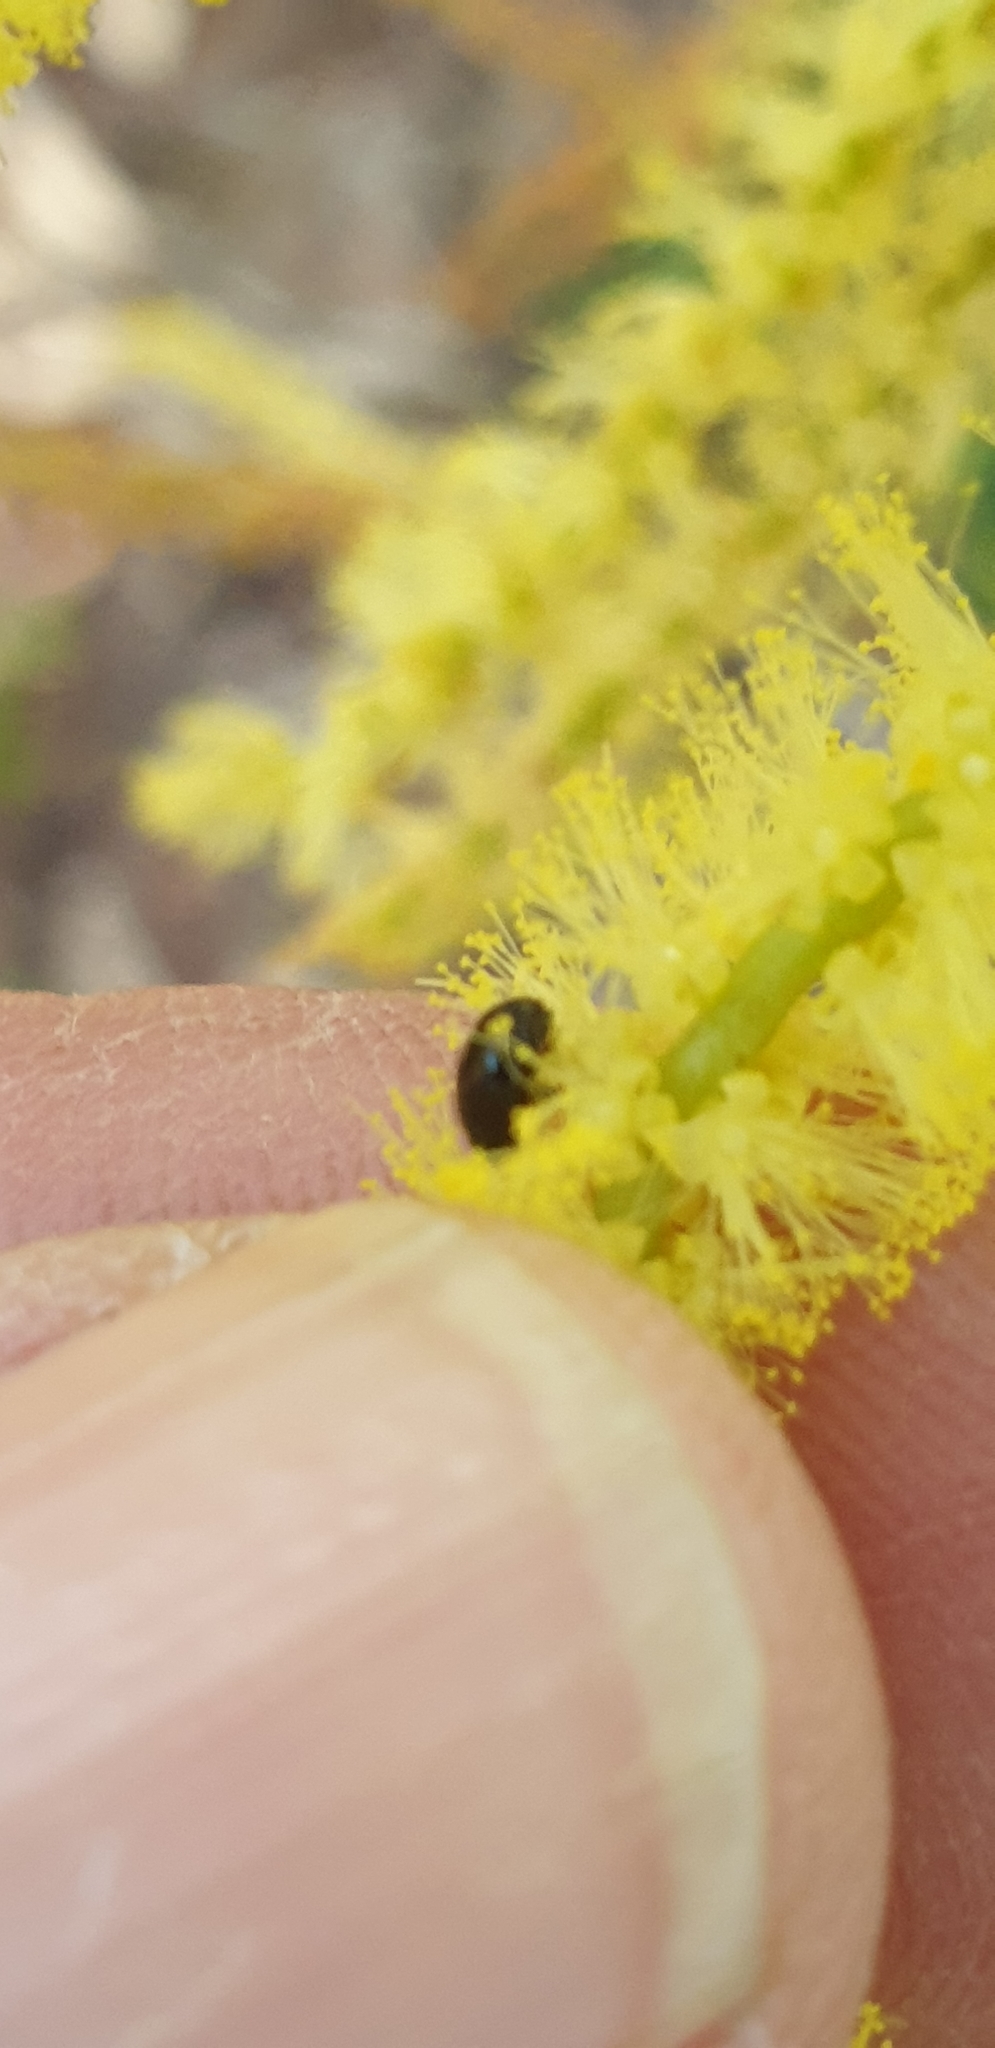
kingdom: Animalia
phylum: Arthropoda
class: Insecta
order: Coleoptera
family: Chrysomelidae
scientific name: Chrysomelidae
